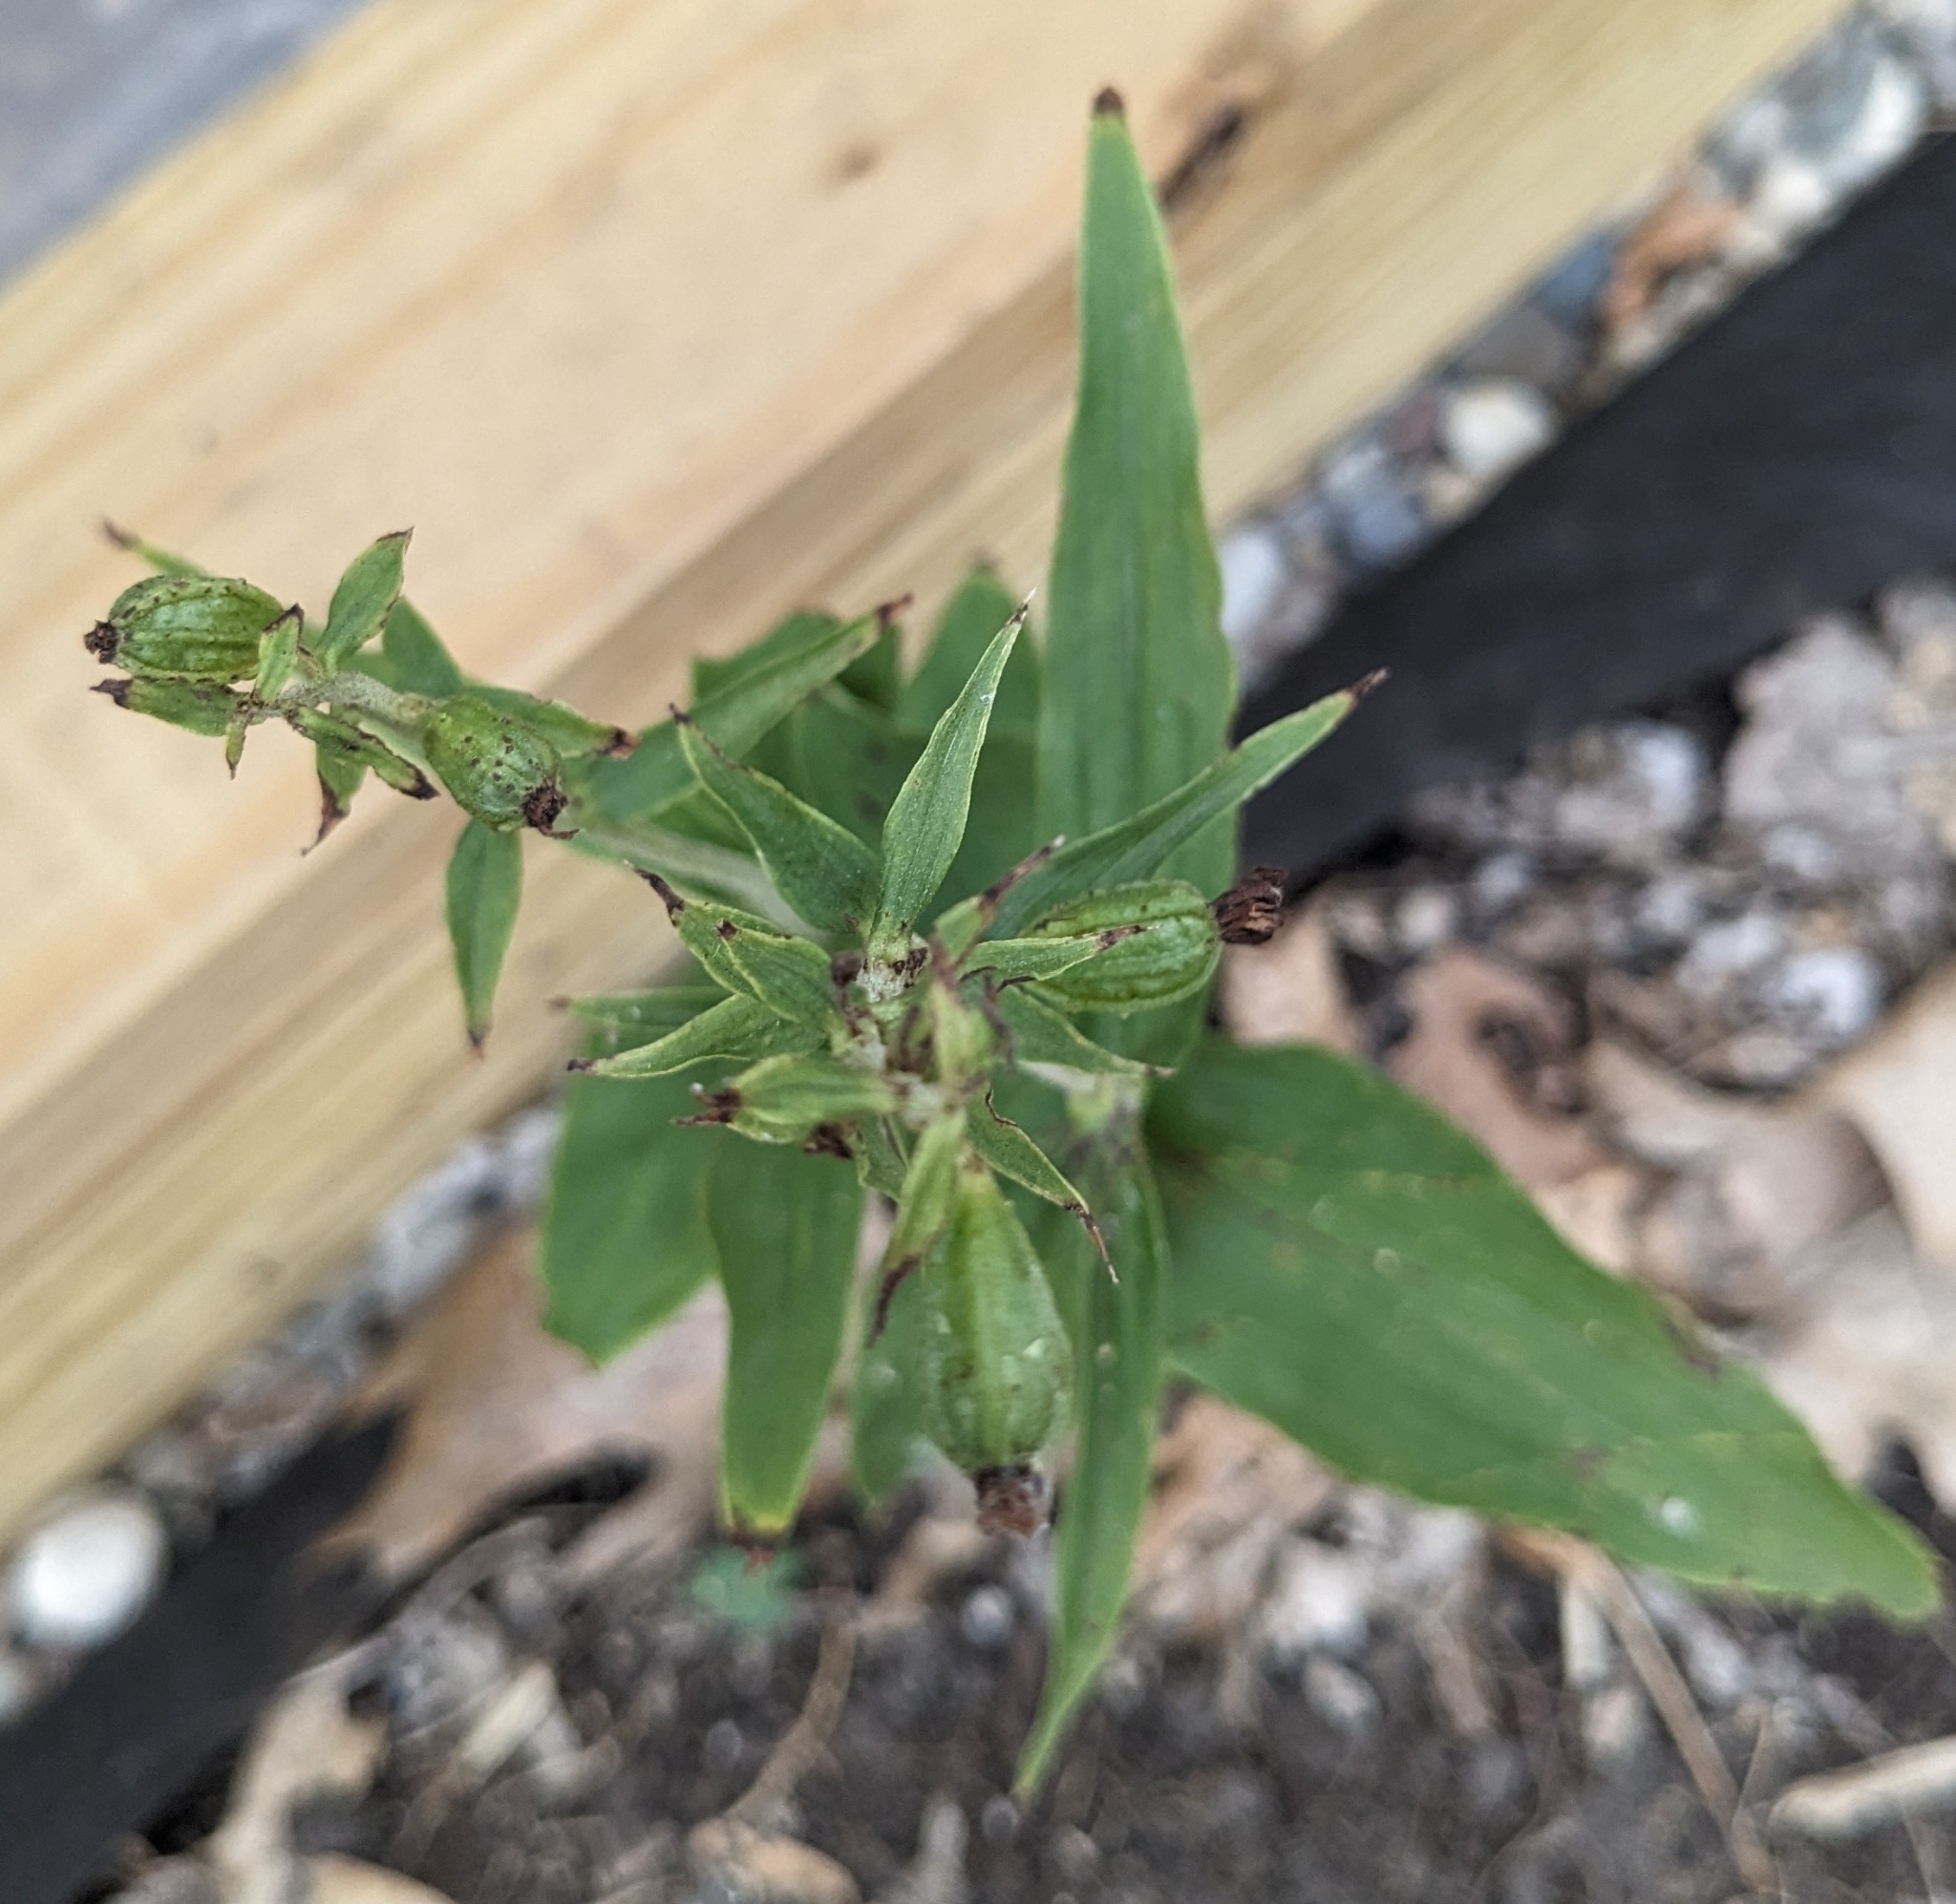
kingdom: Plantae
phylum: Tracheophyta
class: Liliopsida
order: Asparagales
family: Orchidaceae
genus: Epipactis
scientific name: Epipactis helleborine
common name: Broad-leaved helleborine
